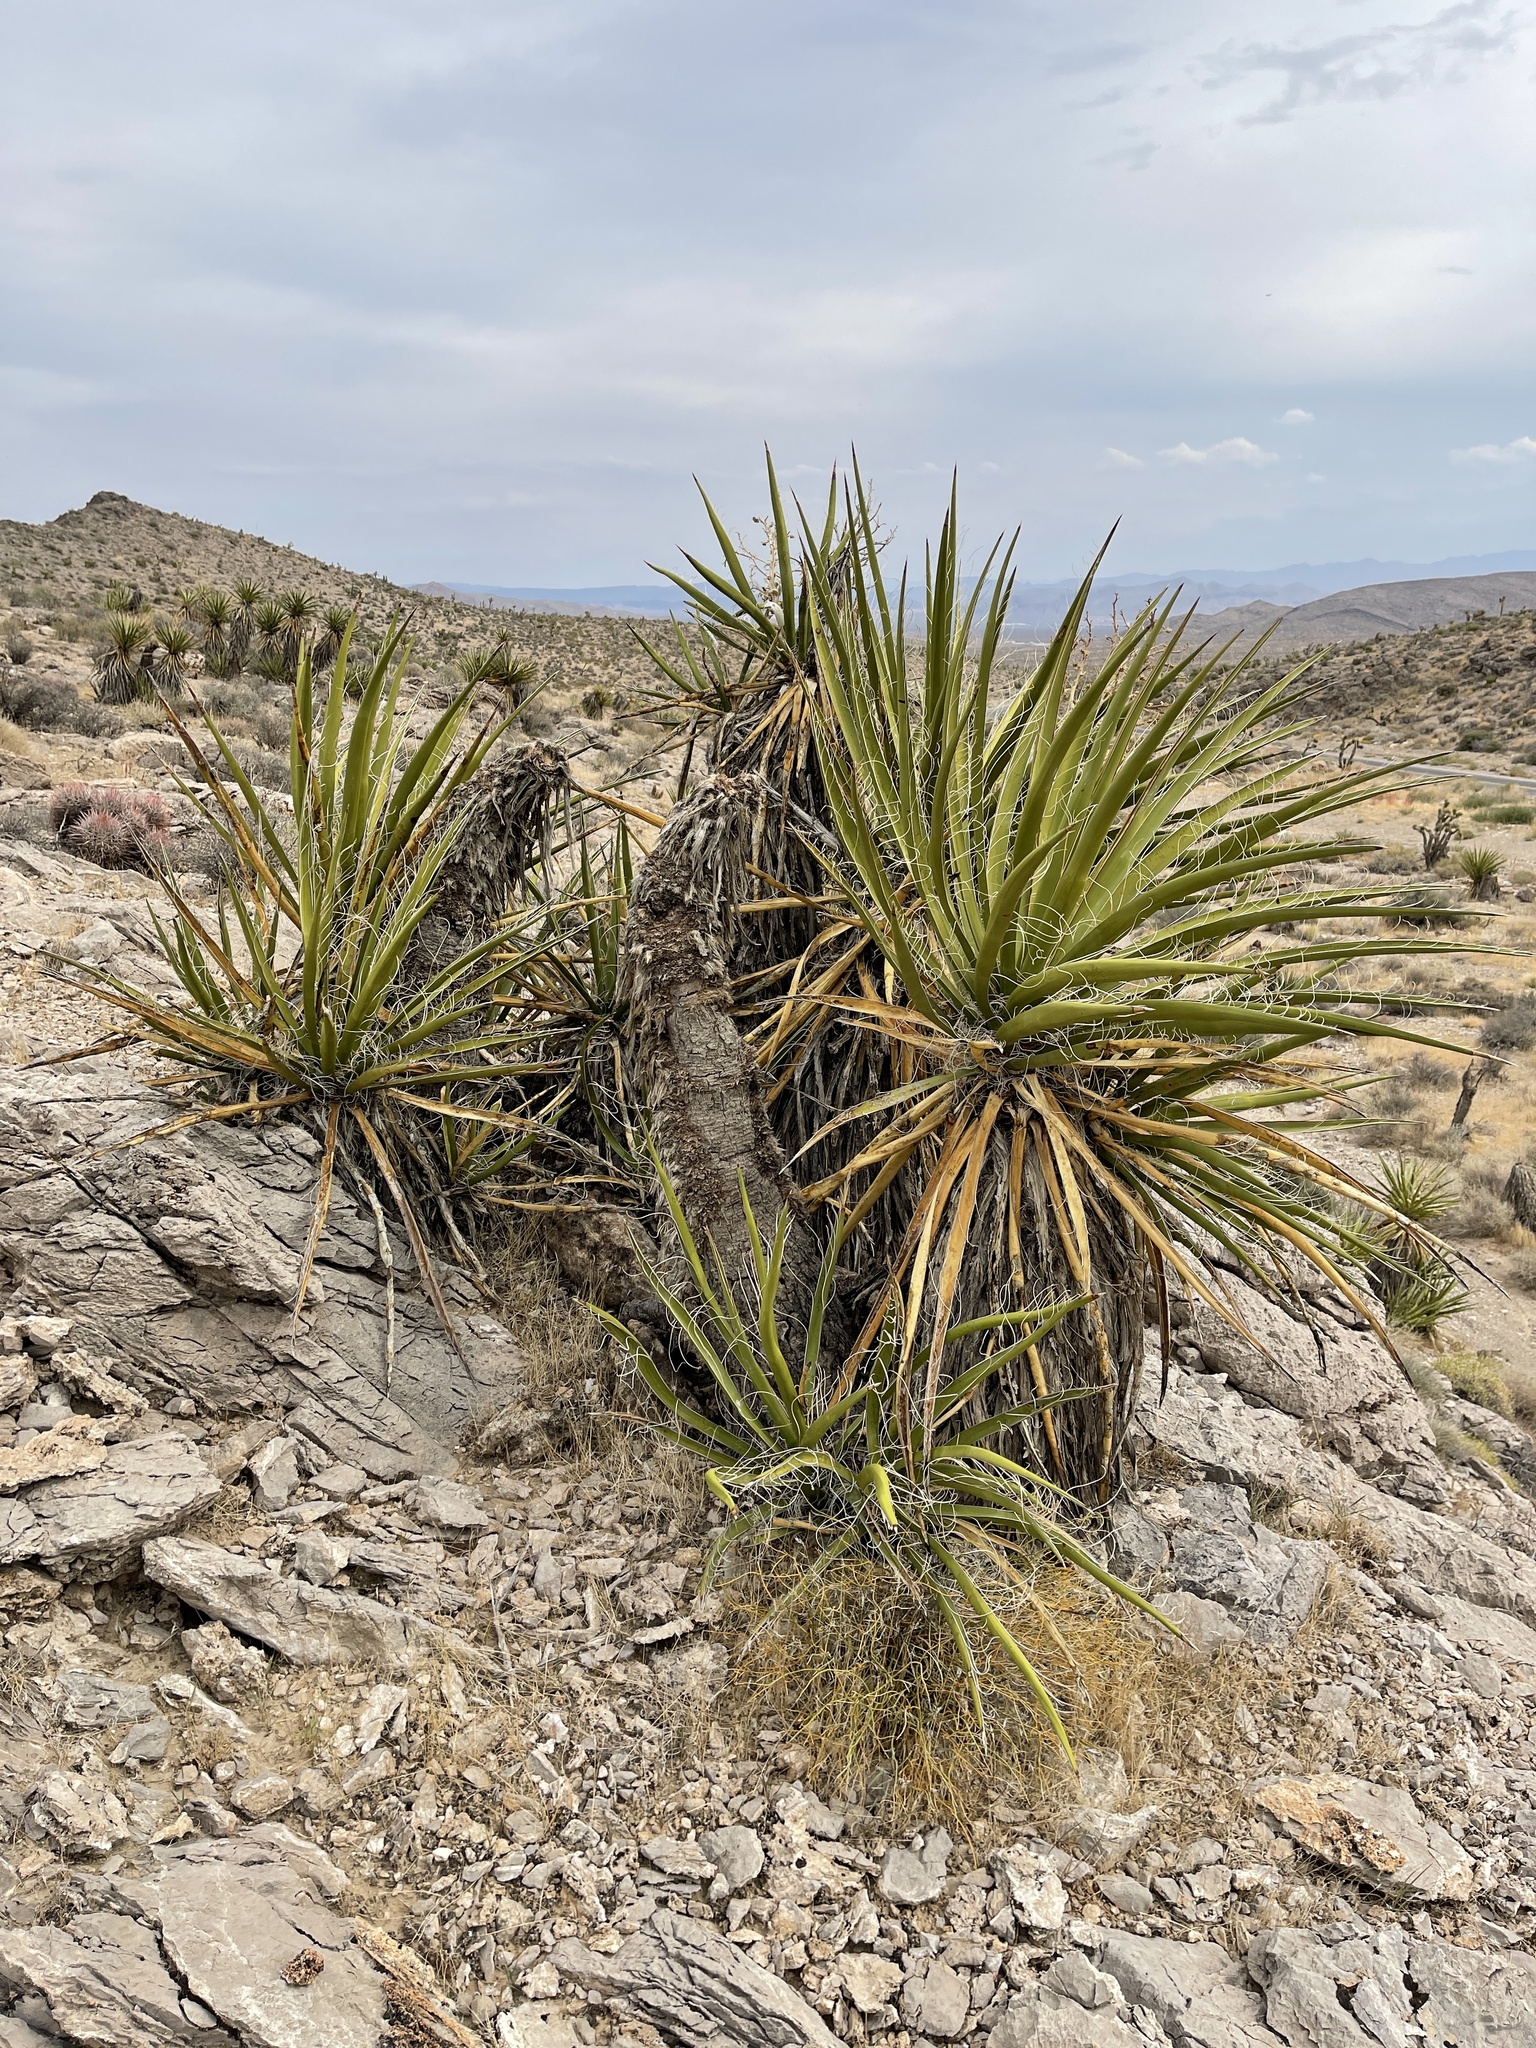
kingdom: Plantae
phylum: Tracheophyta
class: Liliopsida
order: Asparagales
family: Asparagaceae
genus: Yucca
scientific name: Yucca schidigera
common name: Mojave yucca
